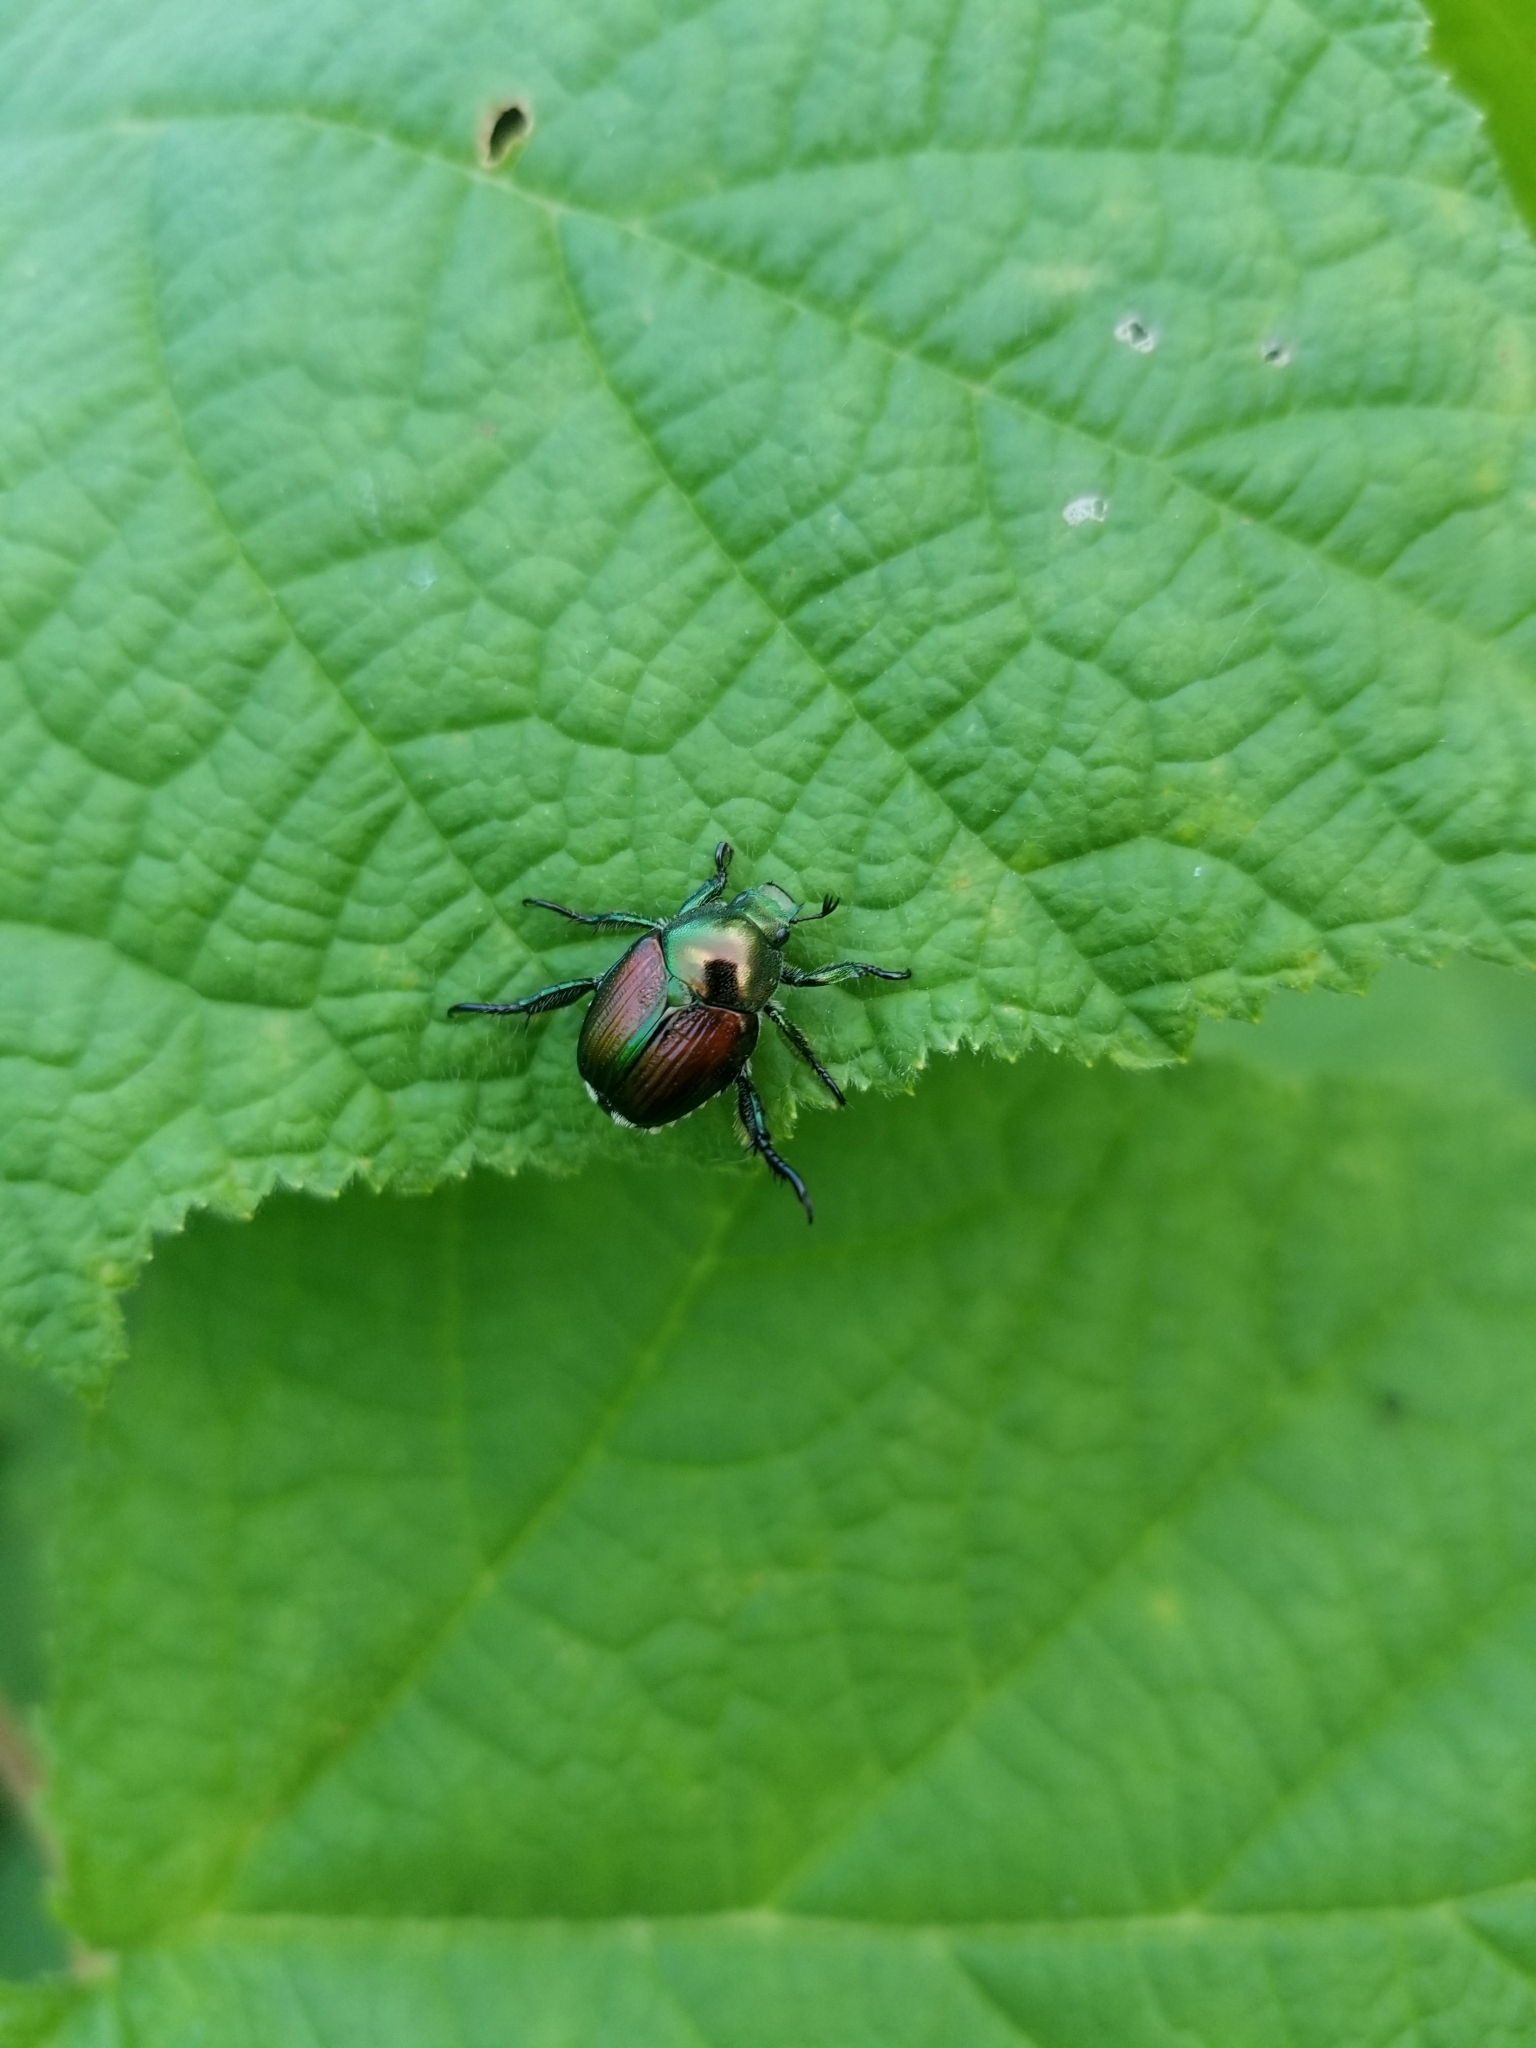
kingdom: Animalia
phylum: Arthropoda
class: Insecta
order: Coleoptera
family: Scarabaeidae
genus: Popillia
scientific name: Popillia japonica
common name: Japanese beetle
